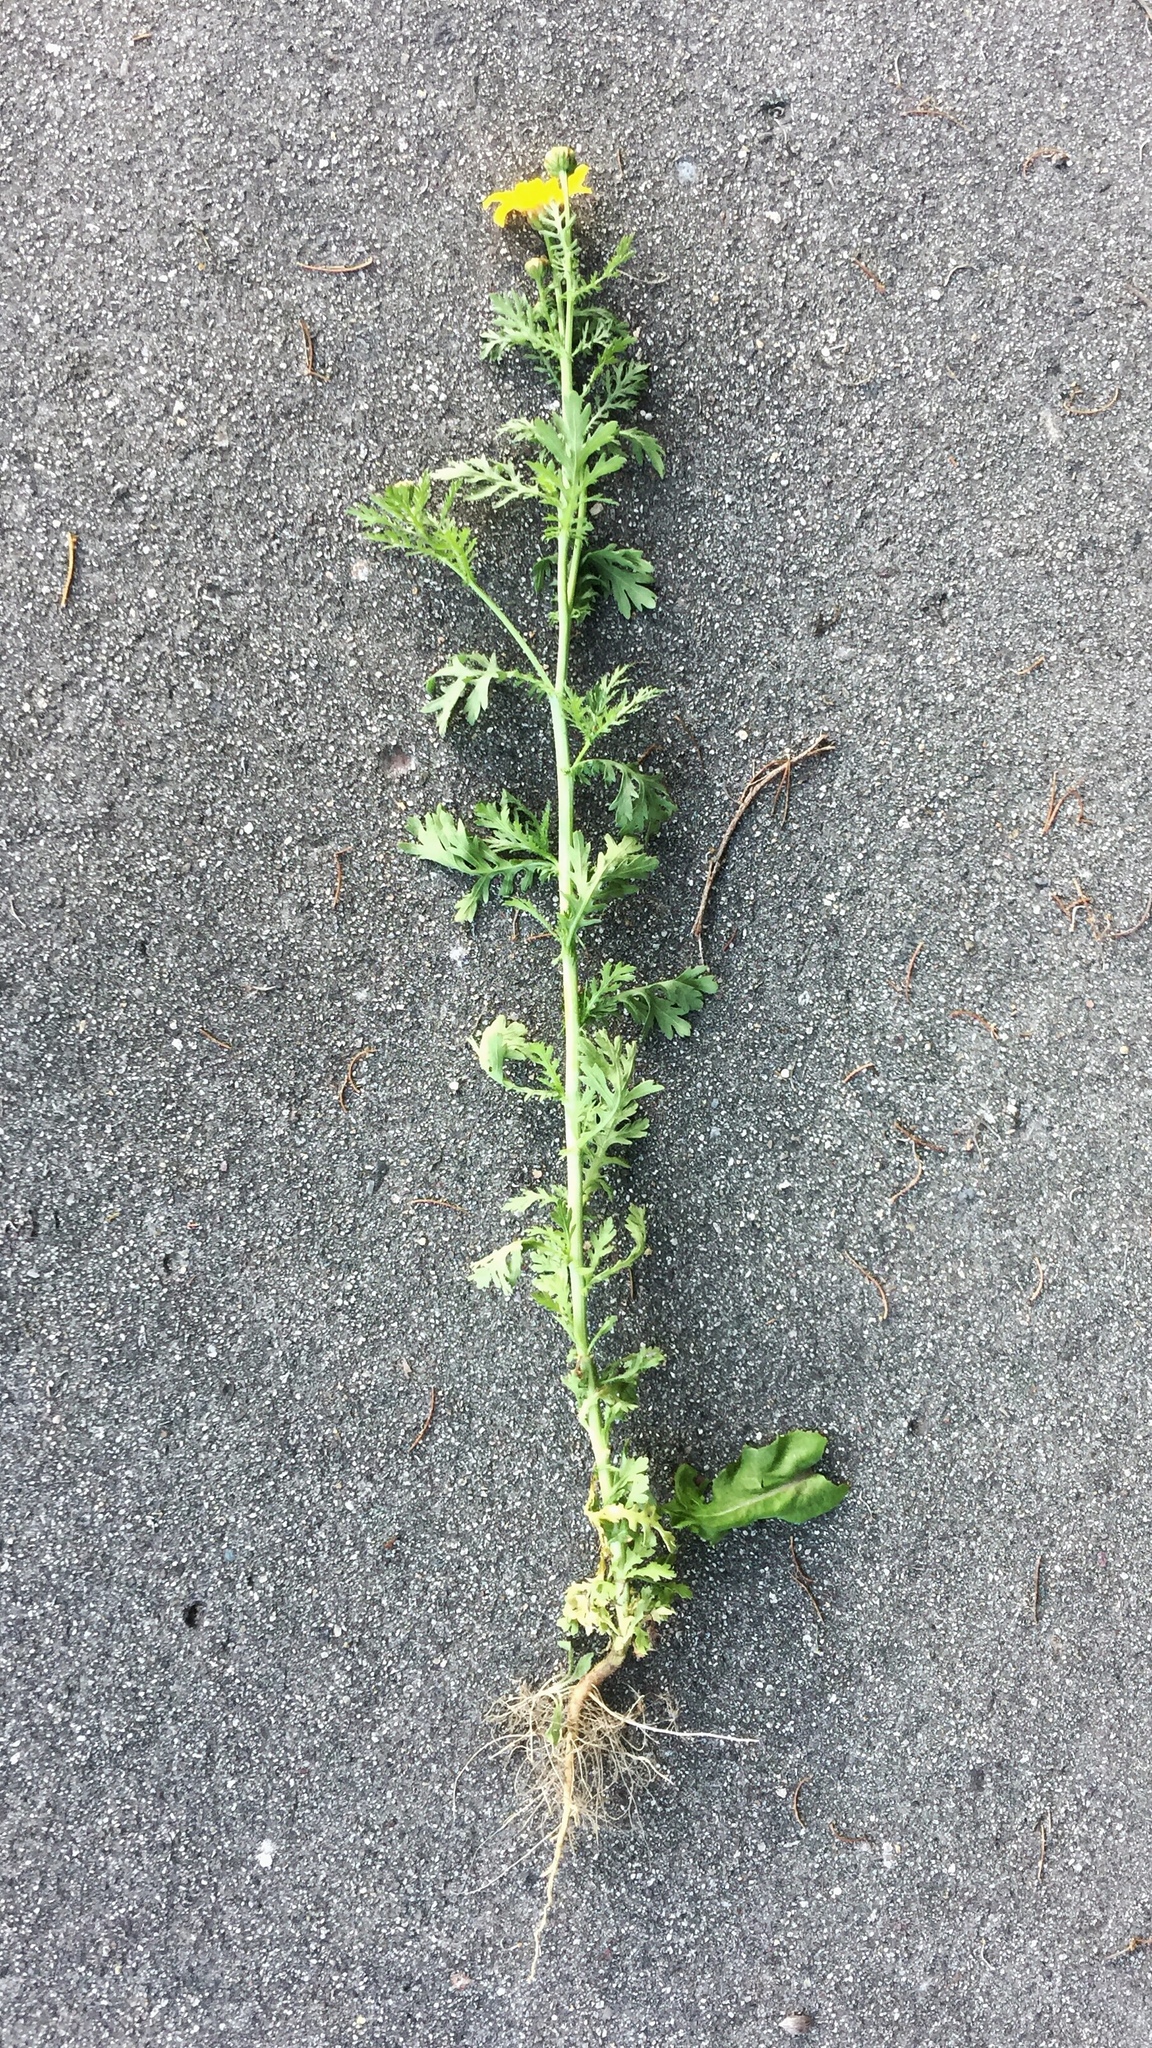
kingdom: Plantae
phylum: Tracheophyta
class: Magnoliopsida
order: Asterales
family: Asteraceae
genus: Glebionis
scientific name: Glebionis coronaria
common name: Crowndaisy
